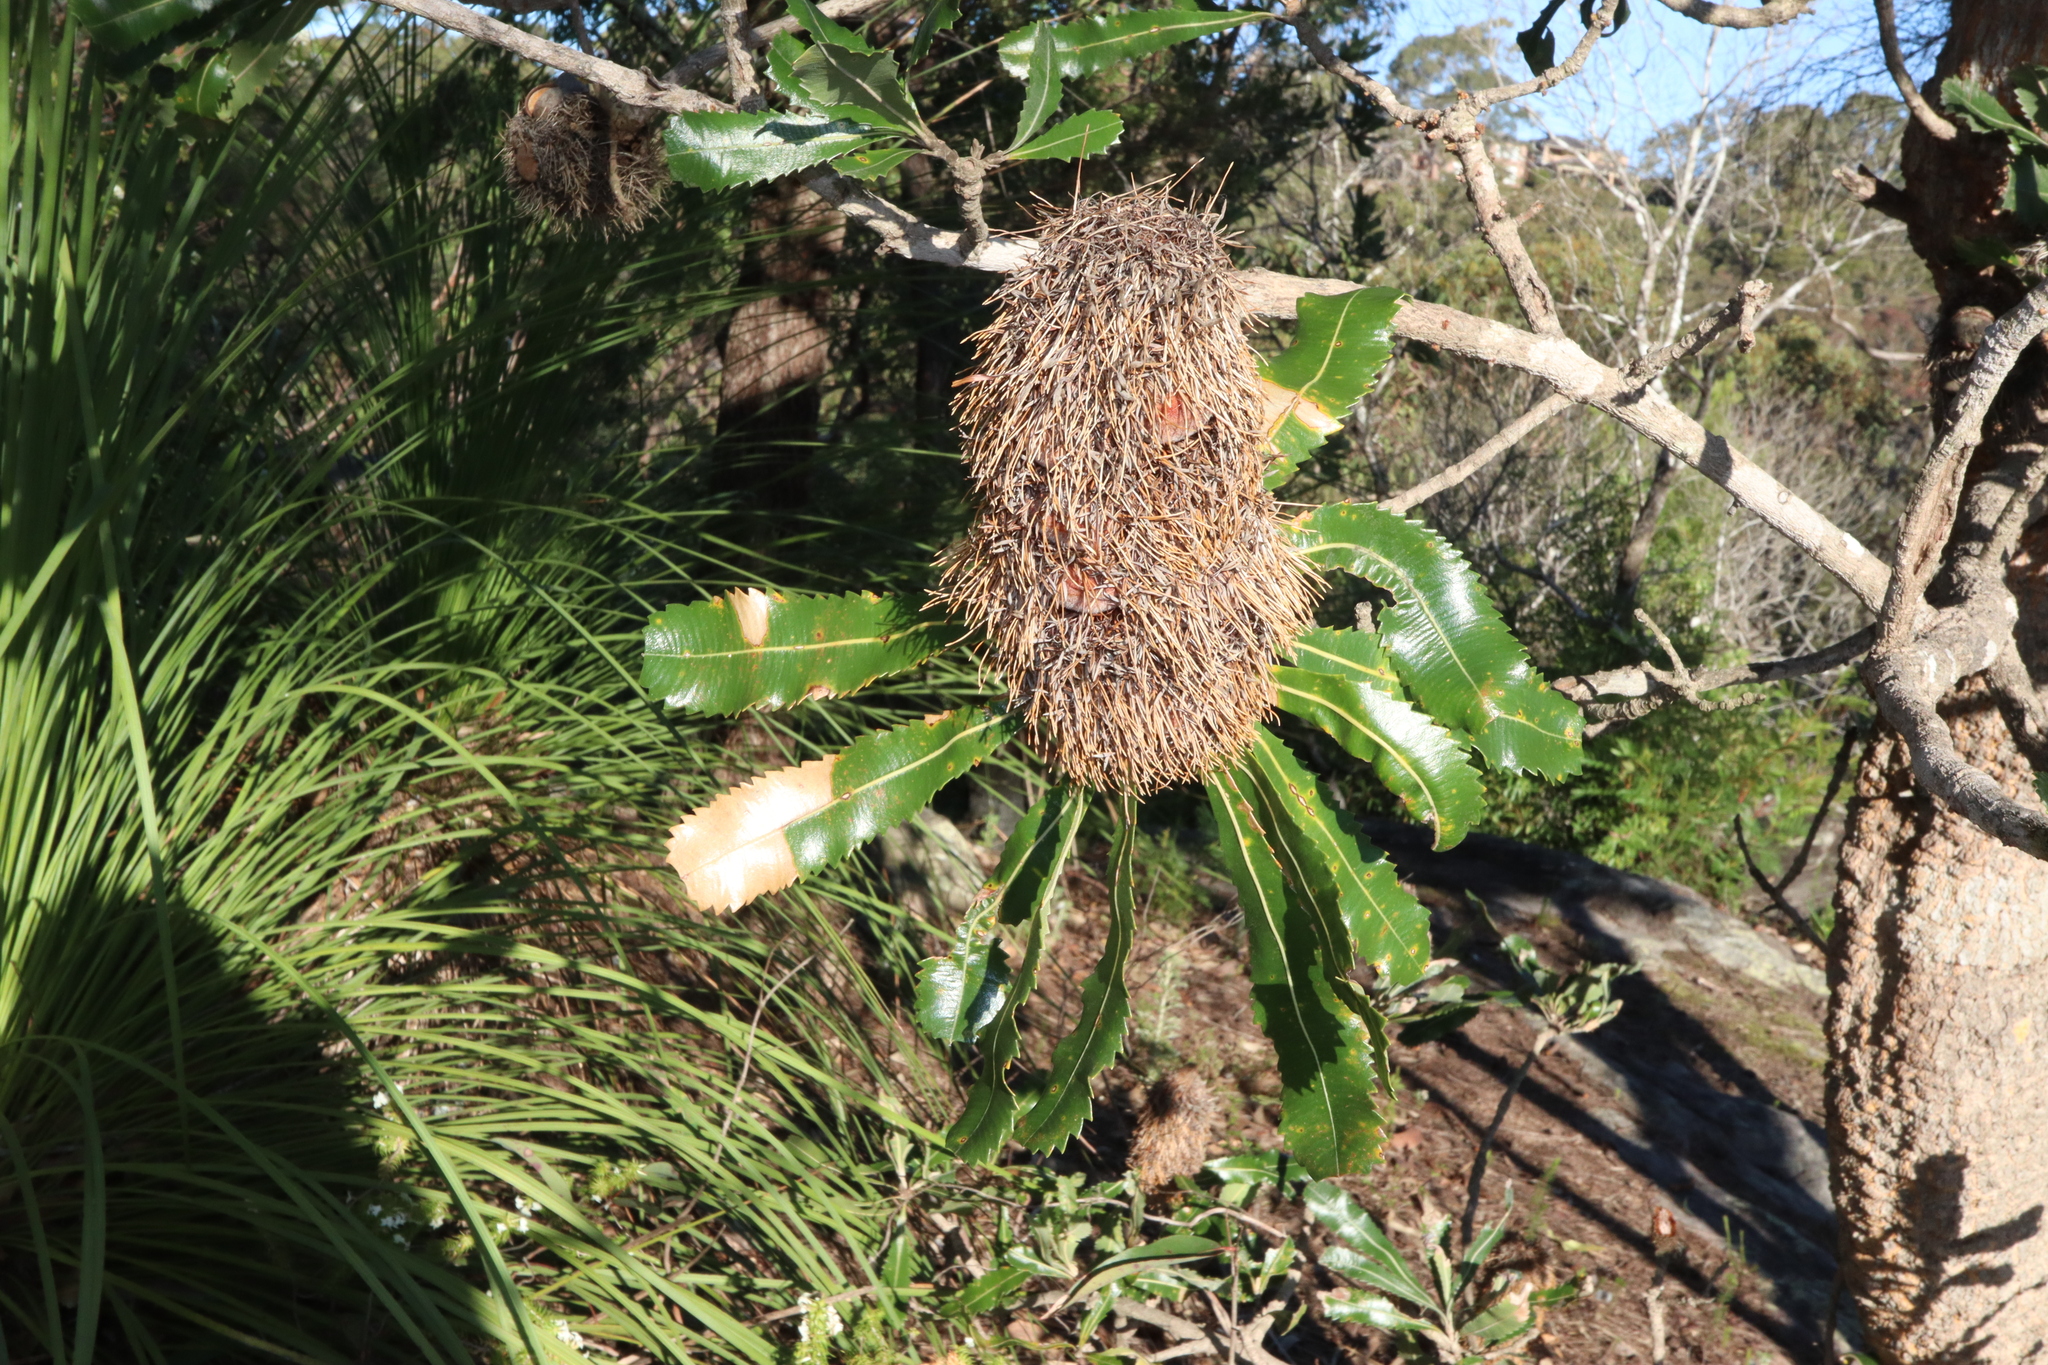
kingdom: Plantae
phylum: Tracheophyta
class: Magnoliopsida
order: Proteales
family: Proteaceae
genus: Banksia
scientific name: Banksia serrata
